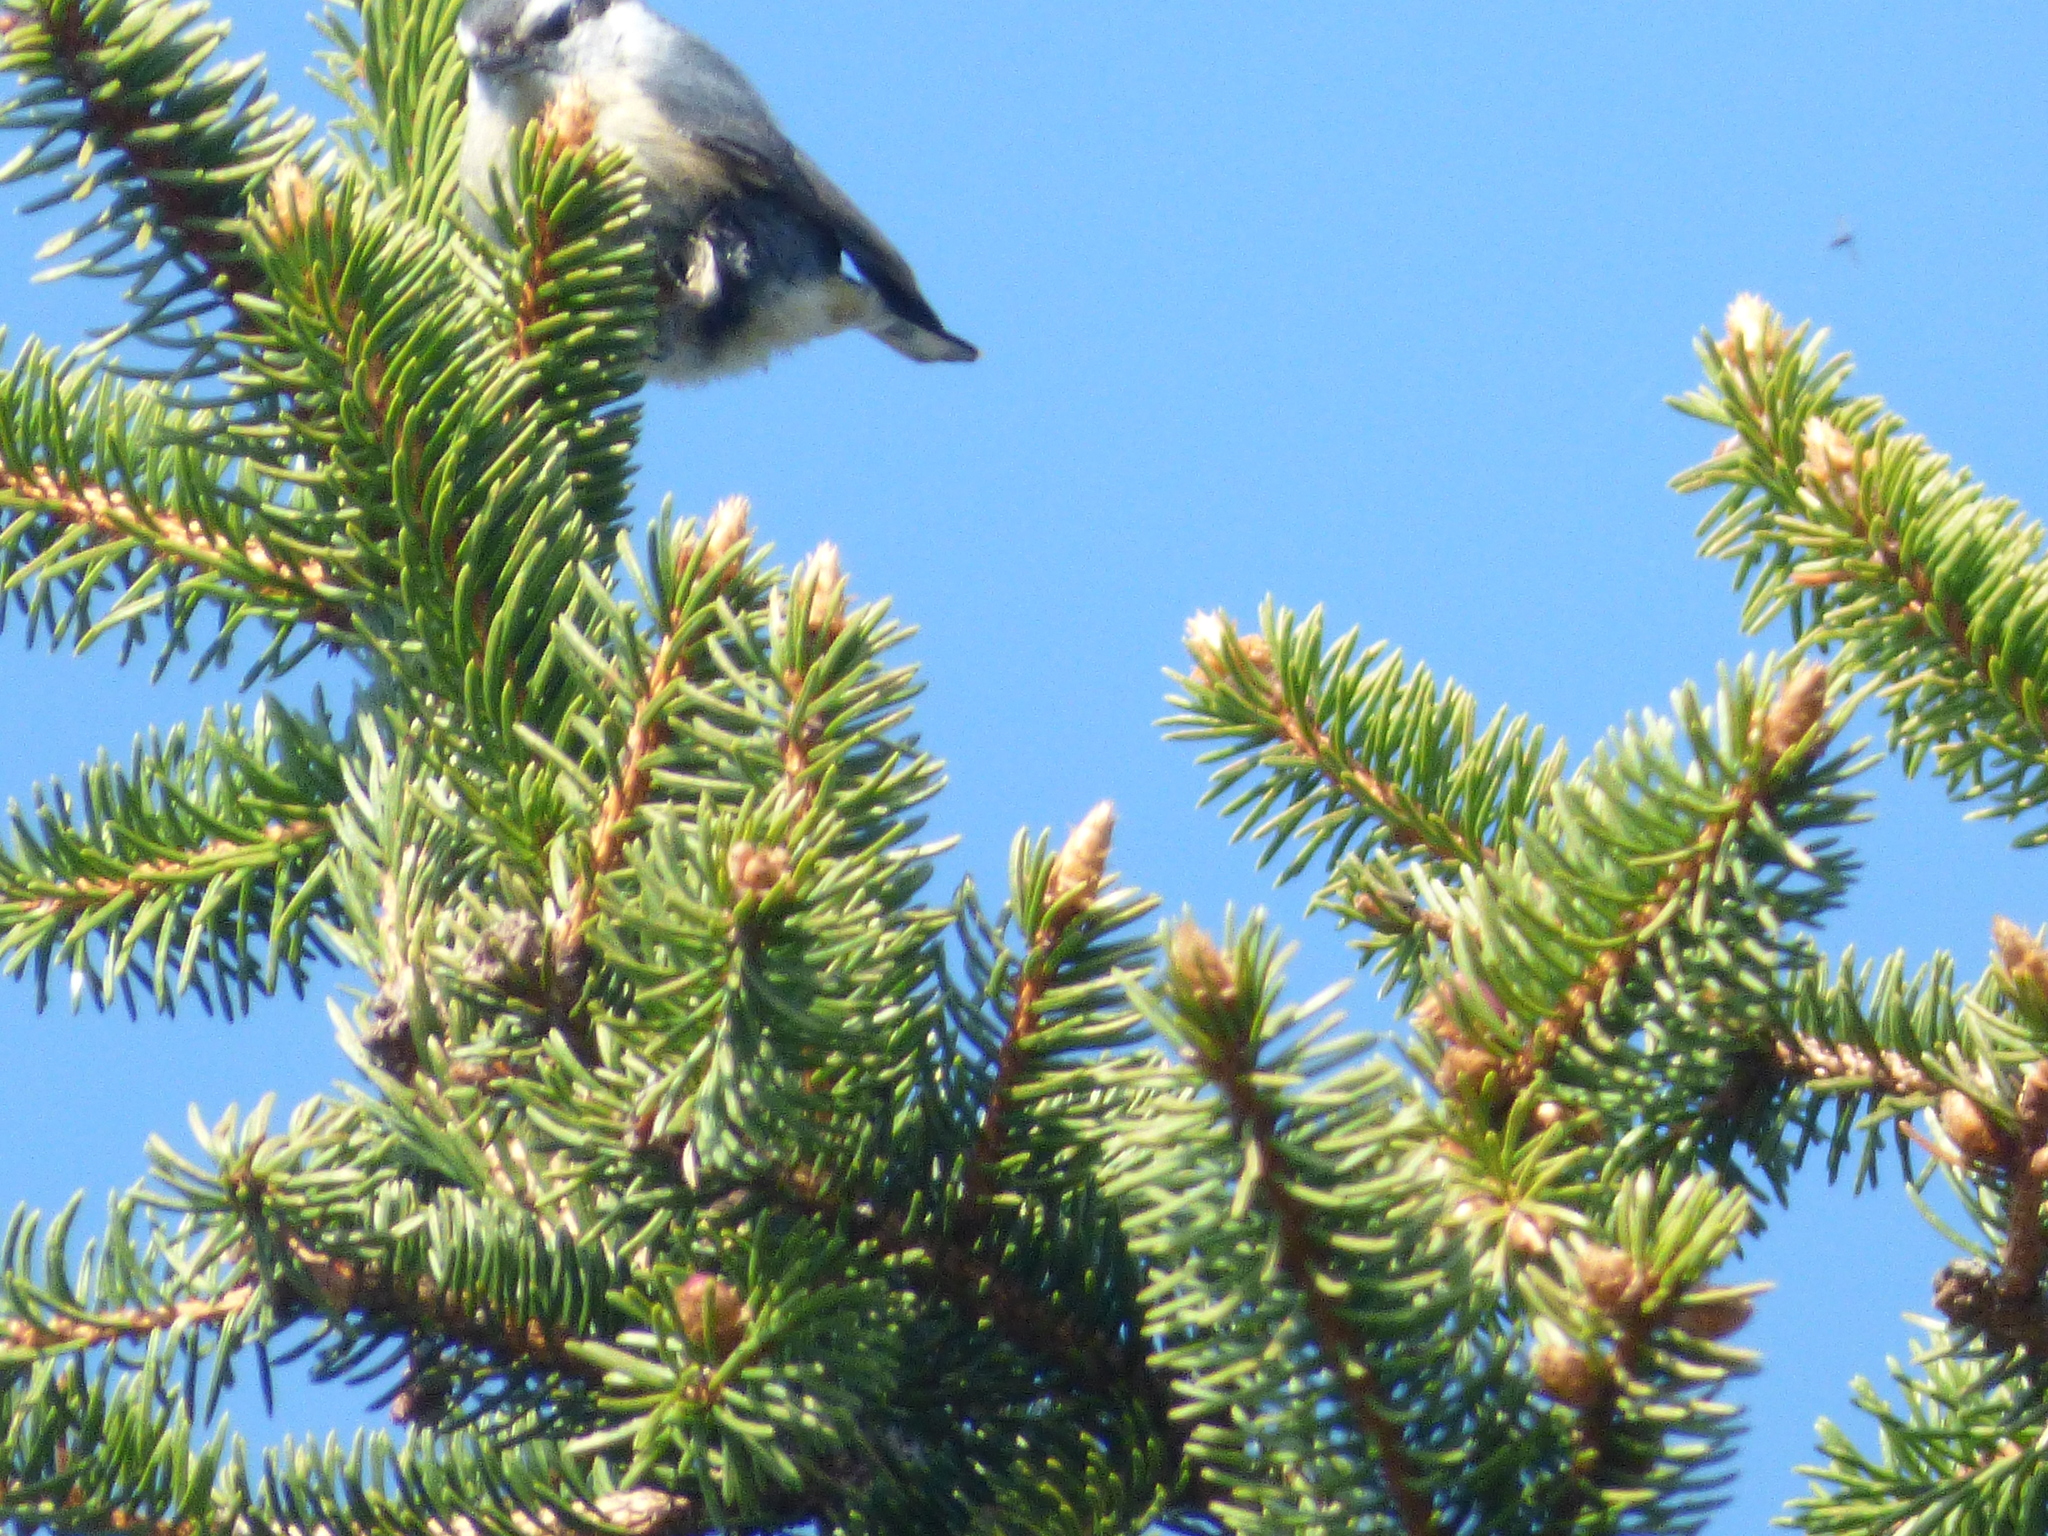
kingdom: Animalia
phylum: Chordata
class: Aves
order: Passeriformes
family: Sittidae
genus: Sitta
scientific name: Sitta canadensis
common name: Red-breasted nuthatch
